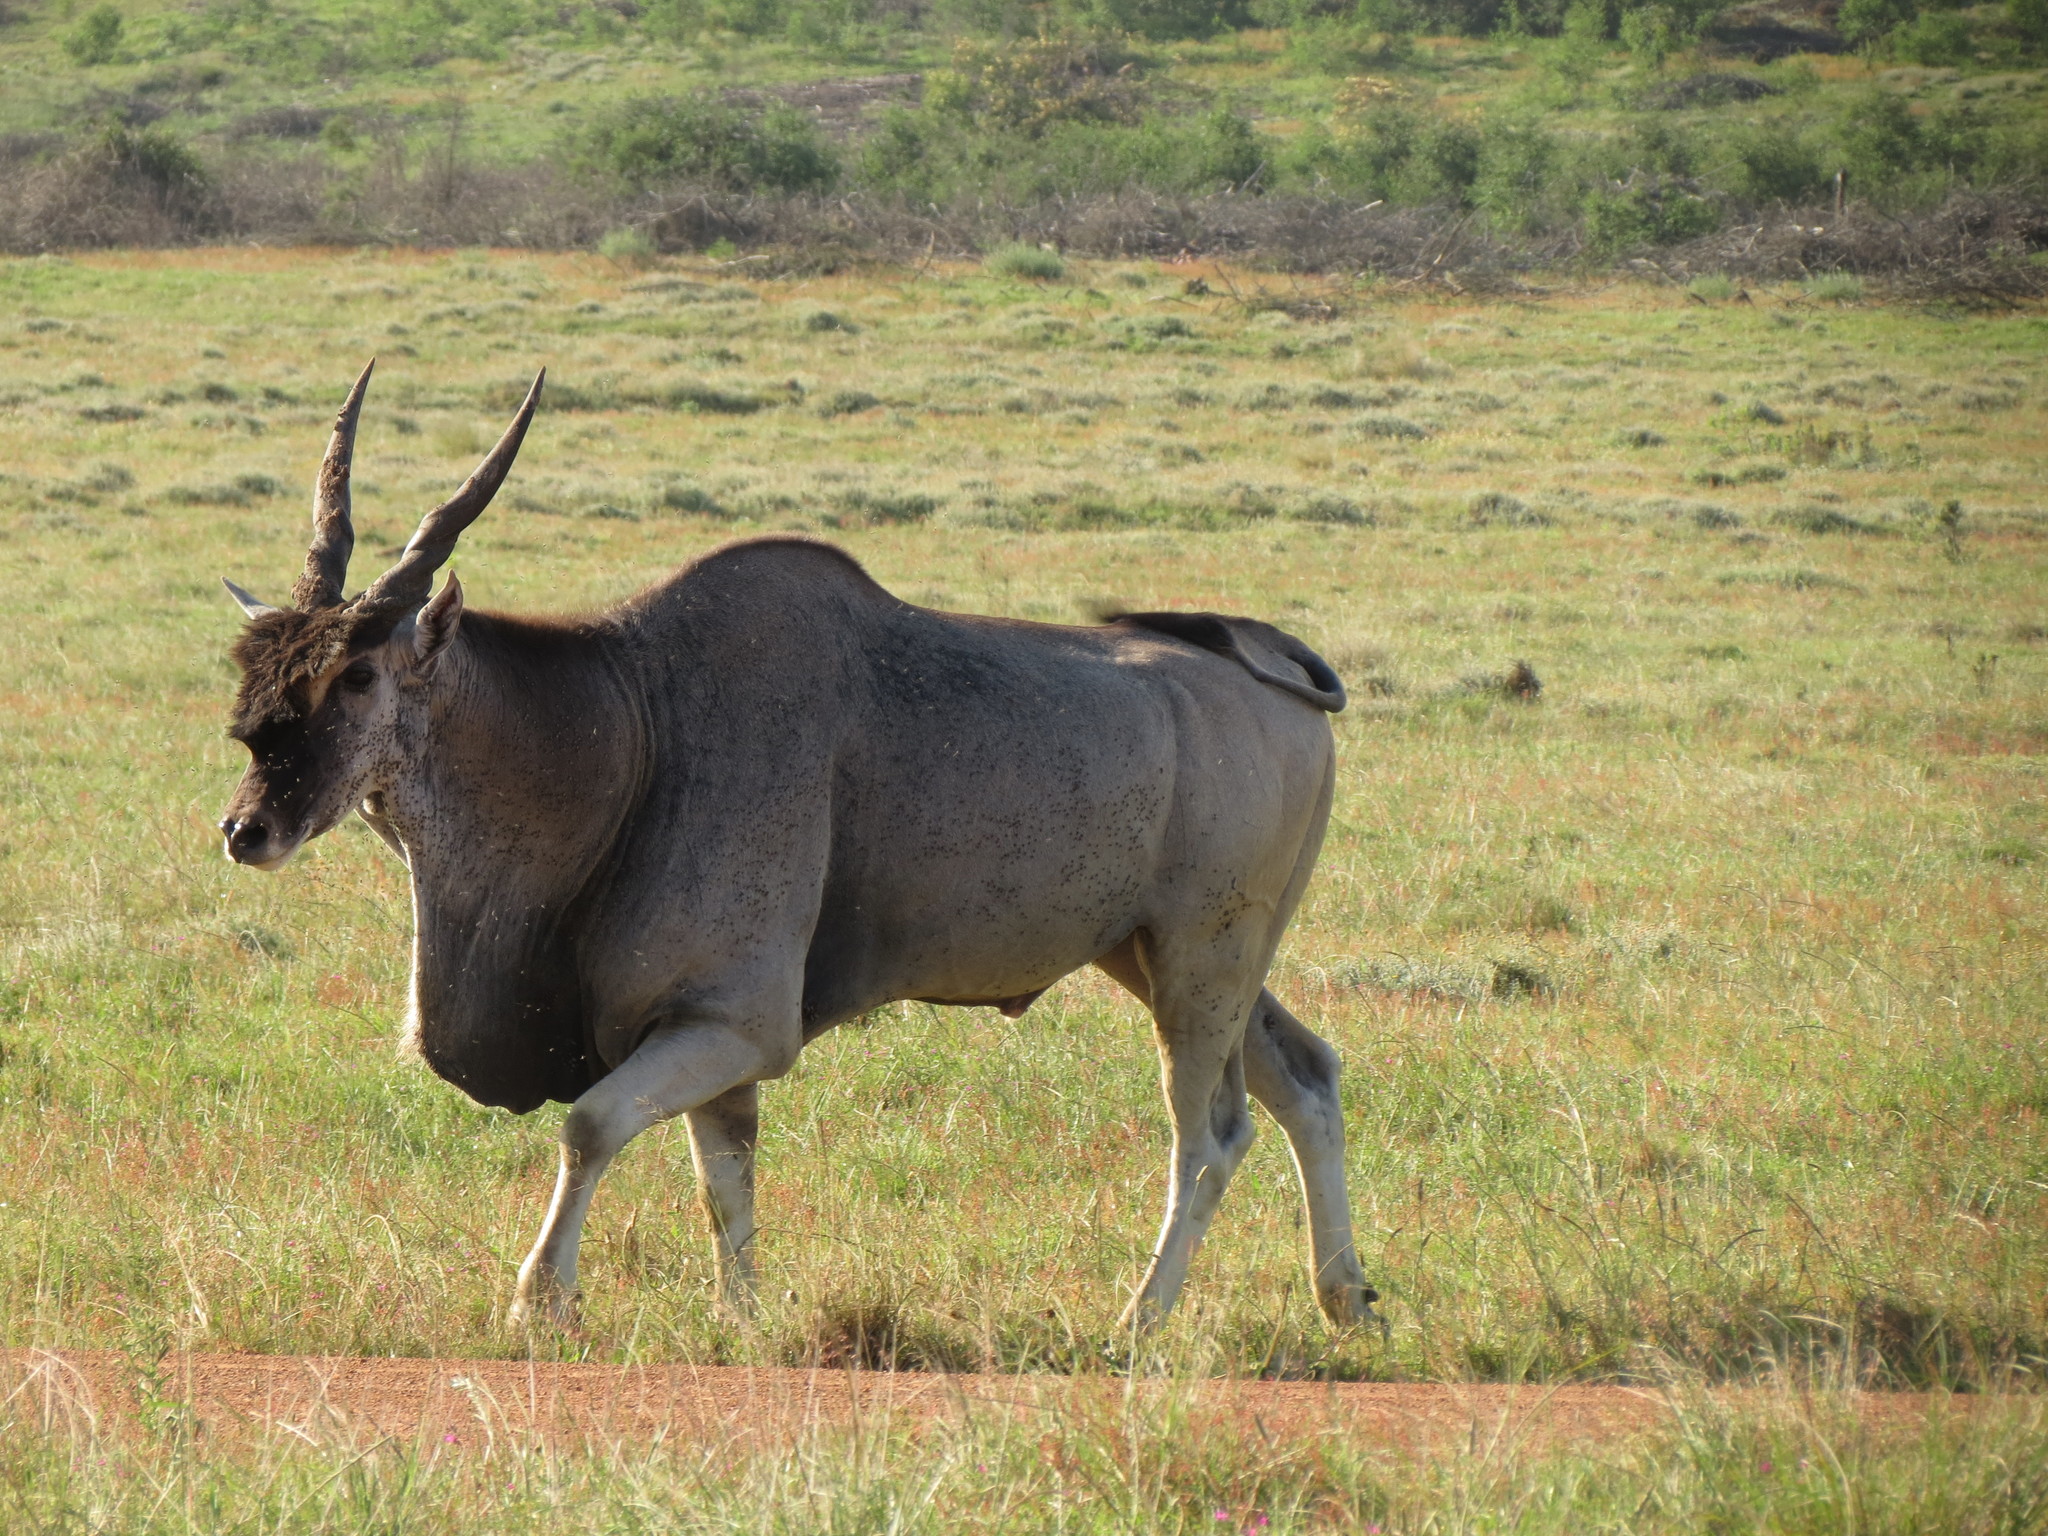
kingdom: Animalia
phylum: Chordata
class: Mammalia
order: Artiodactyla
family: Bovidae
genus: Taurotragus
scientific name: Taurotragus oryx
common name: Common eland
